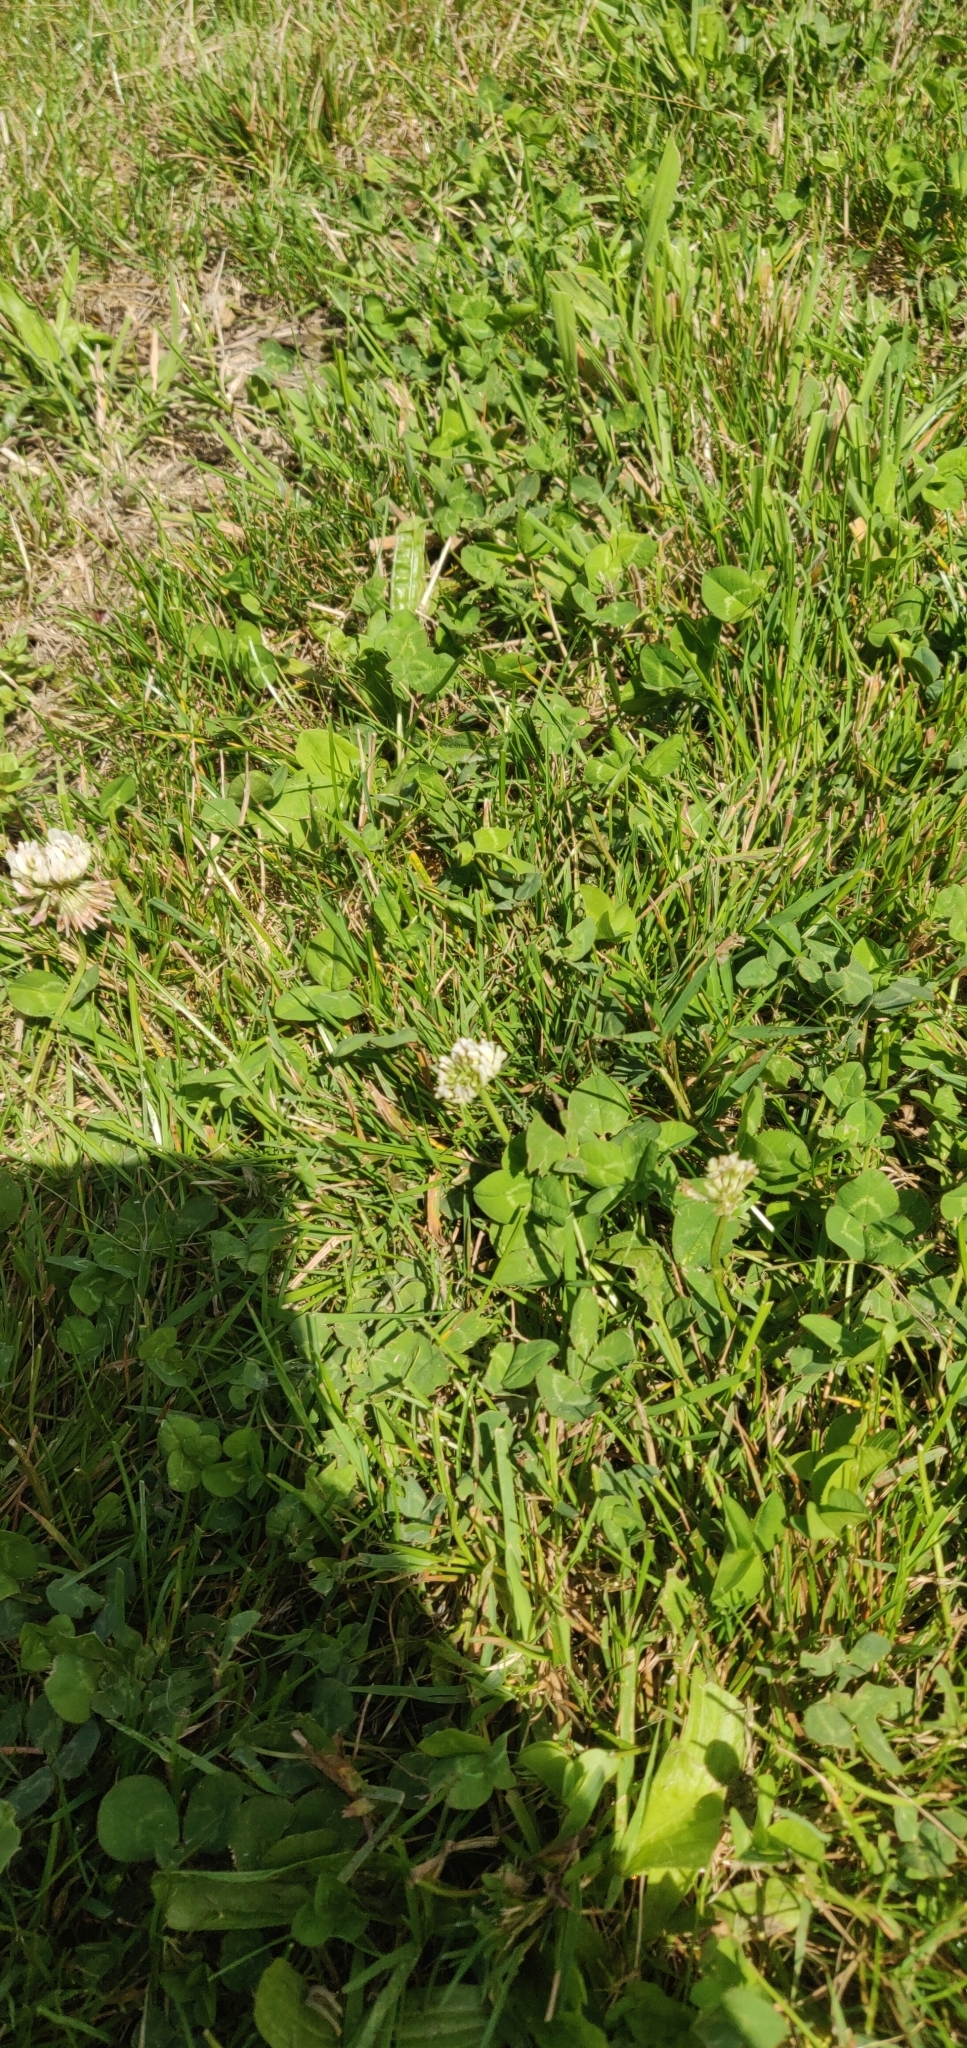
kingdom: Plantae
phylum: Tracheophyta
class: Magnoliopsida
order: Fabales
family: Fabaceae
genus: Trifolium
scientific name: Trifolium repens
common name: White clover
